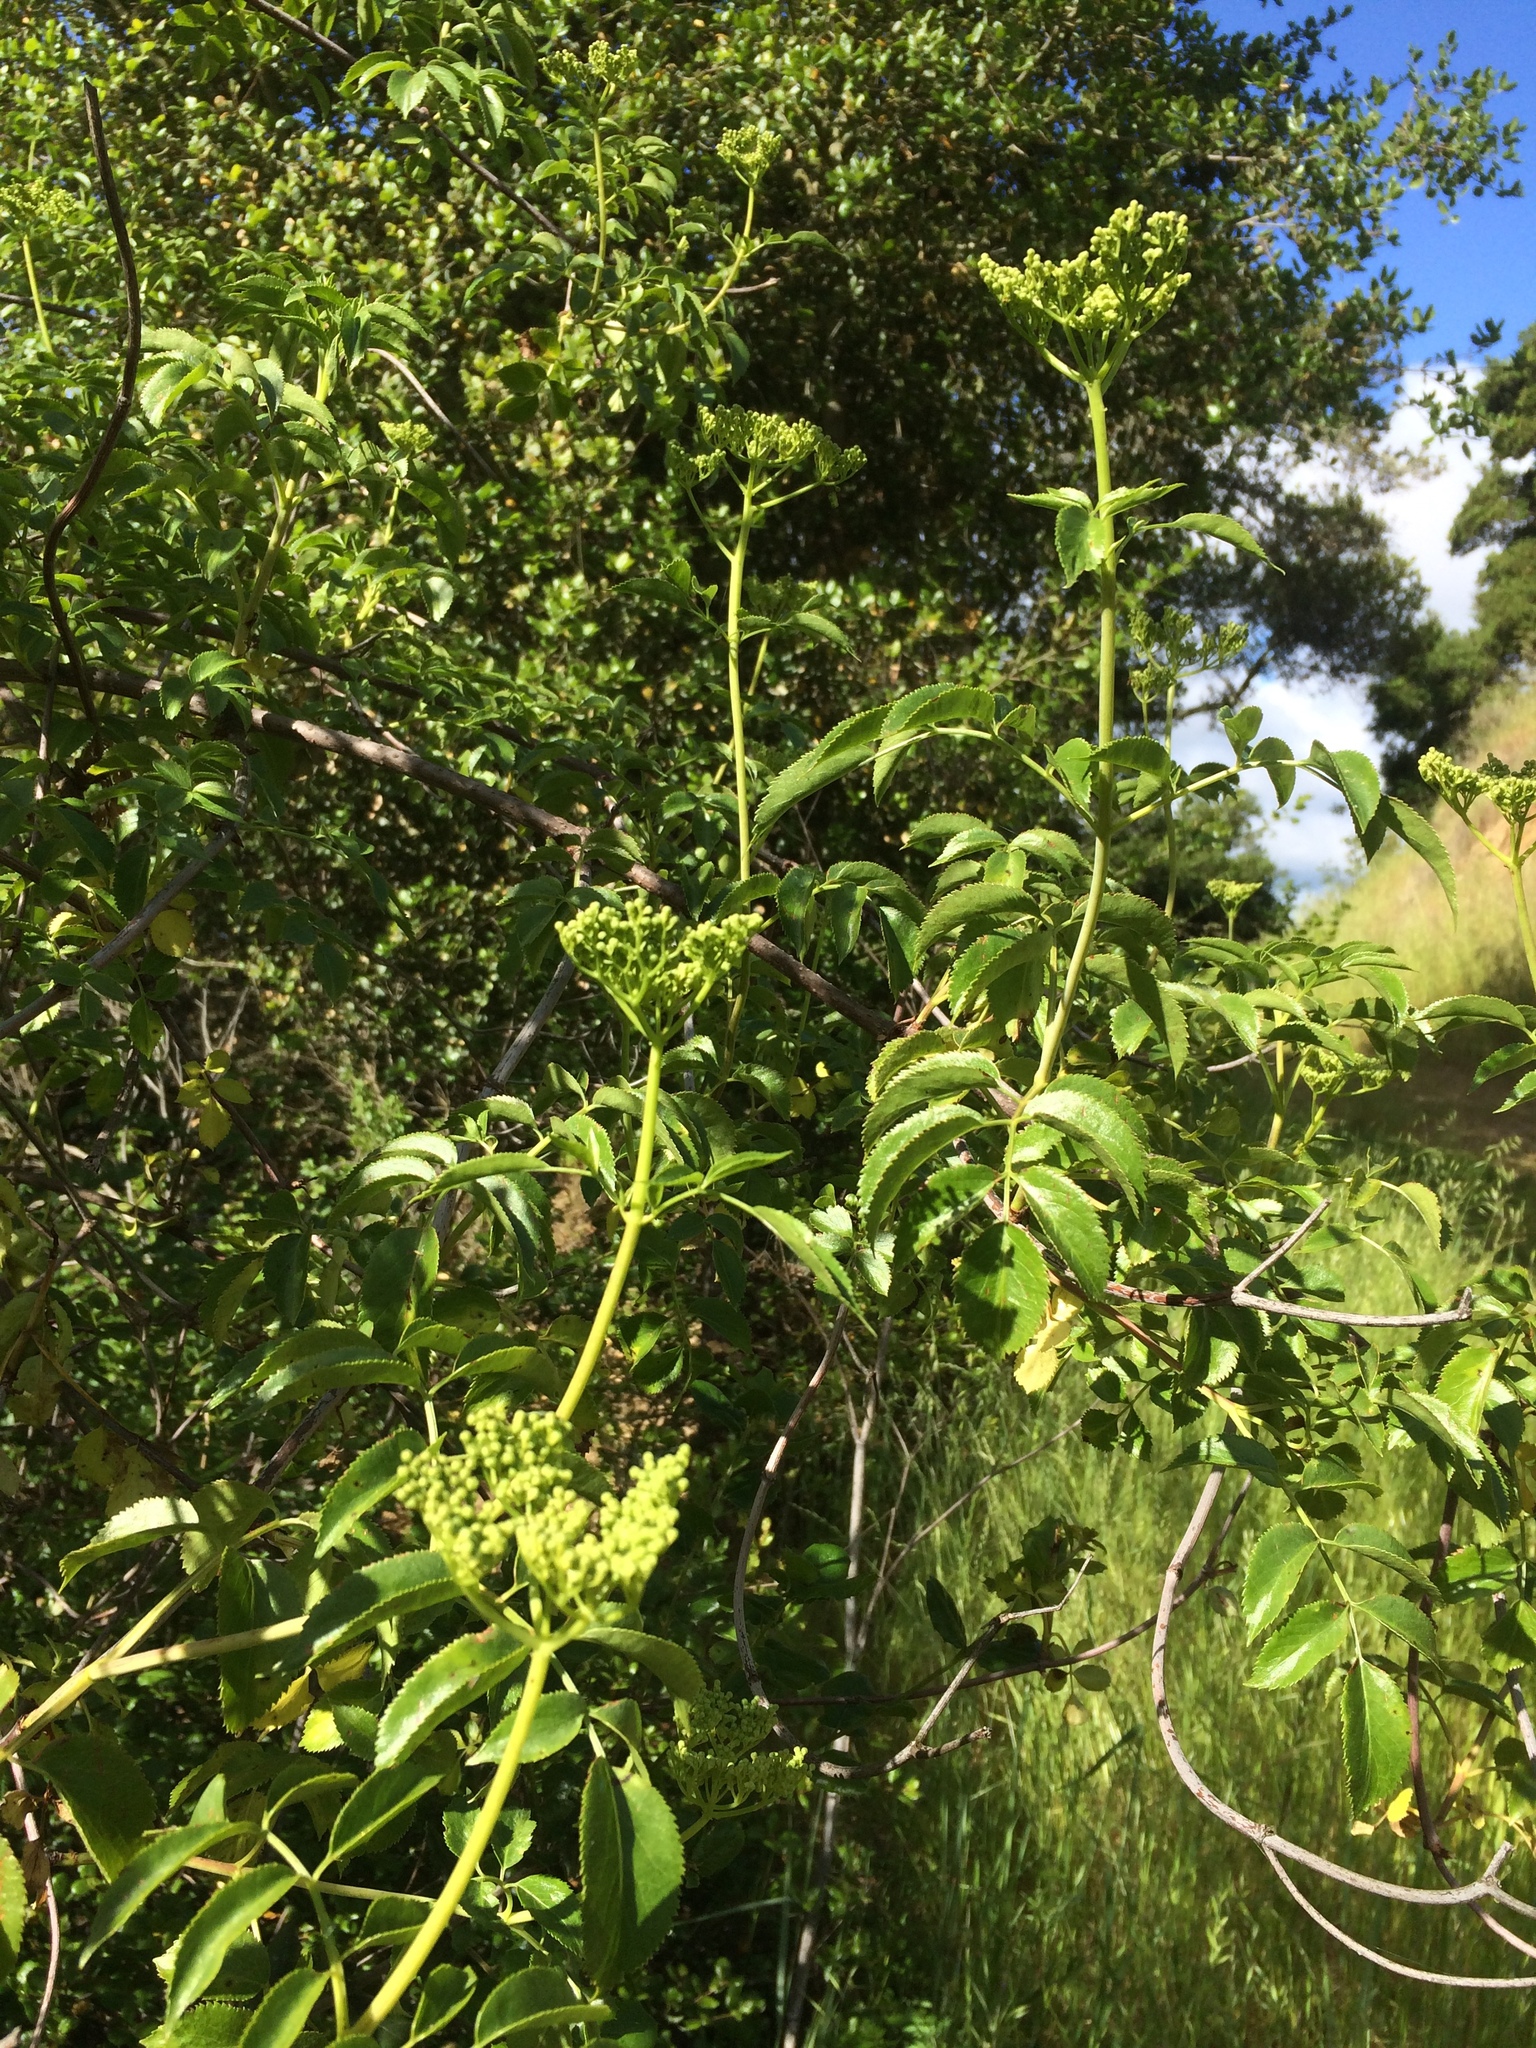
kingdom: Plantae
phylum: Tracheophyta
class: Magnoliopsida
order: Dipsacales
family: Viburnaceae
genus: Sambucus
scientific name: Sambucus cerulea
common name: Blue elder
